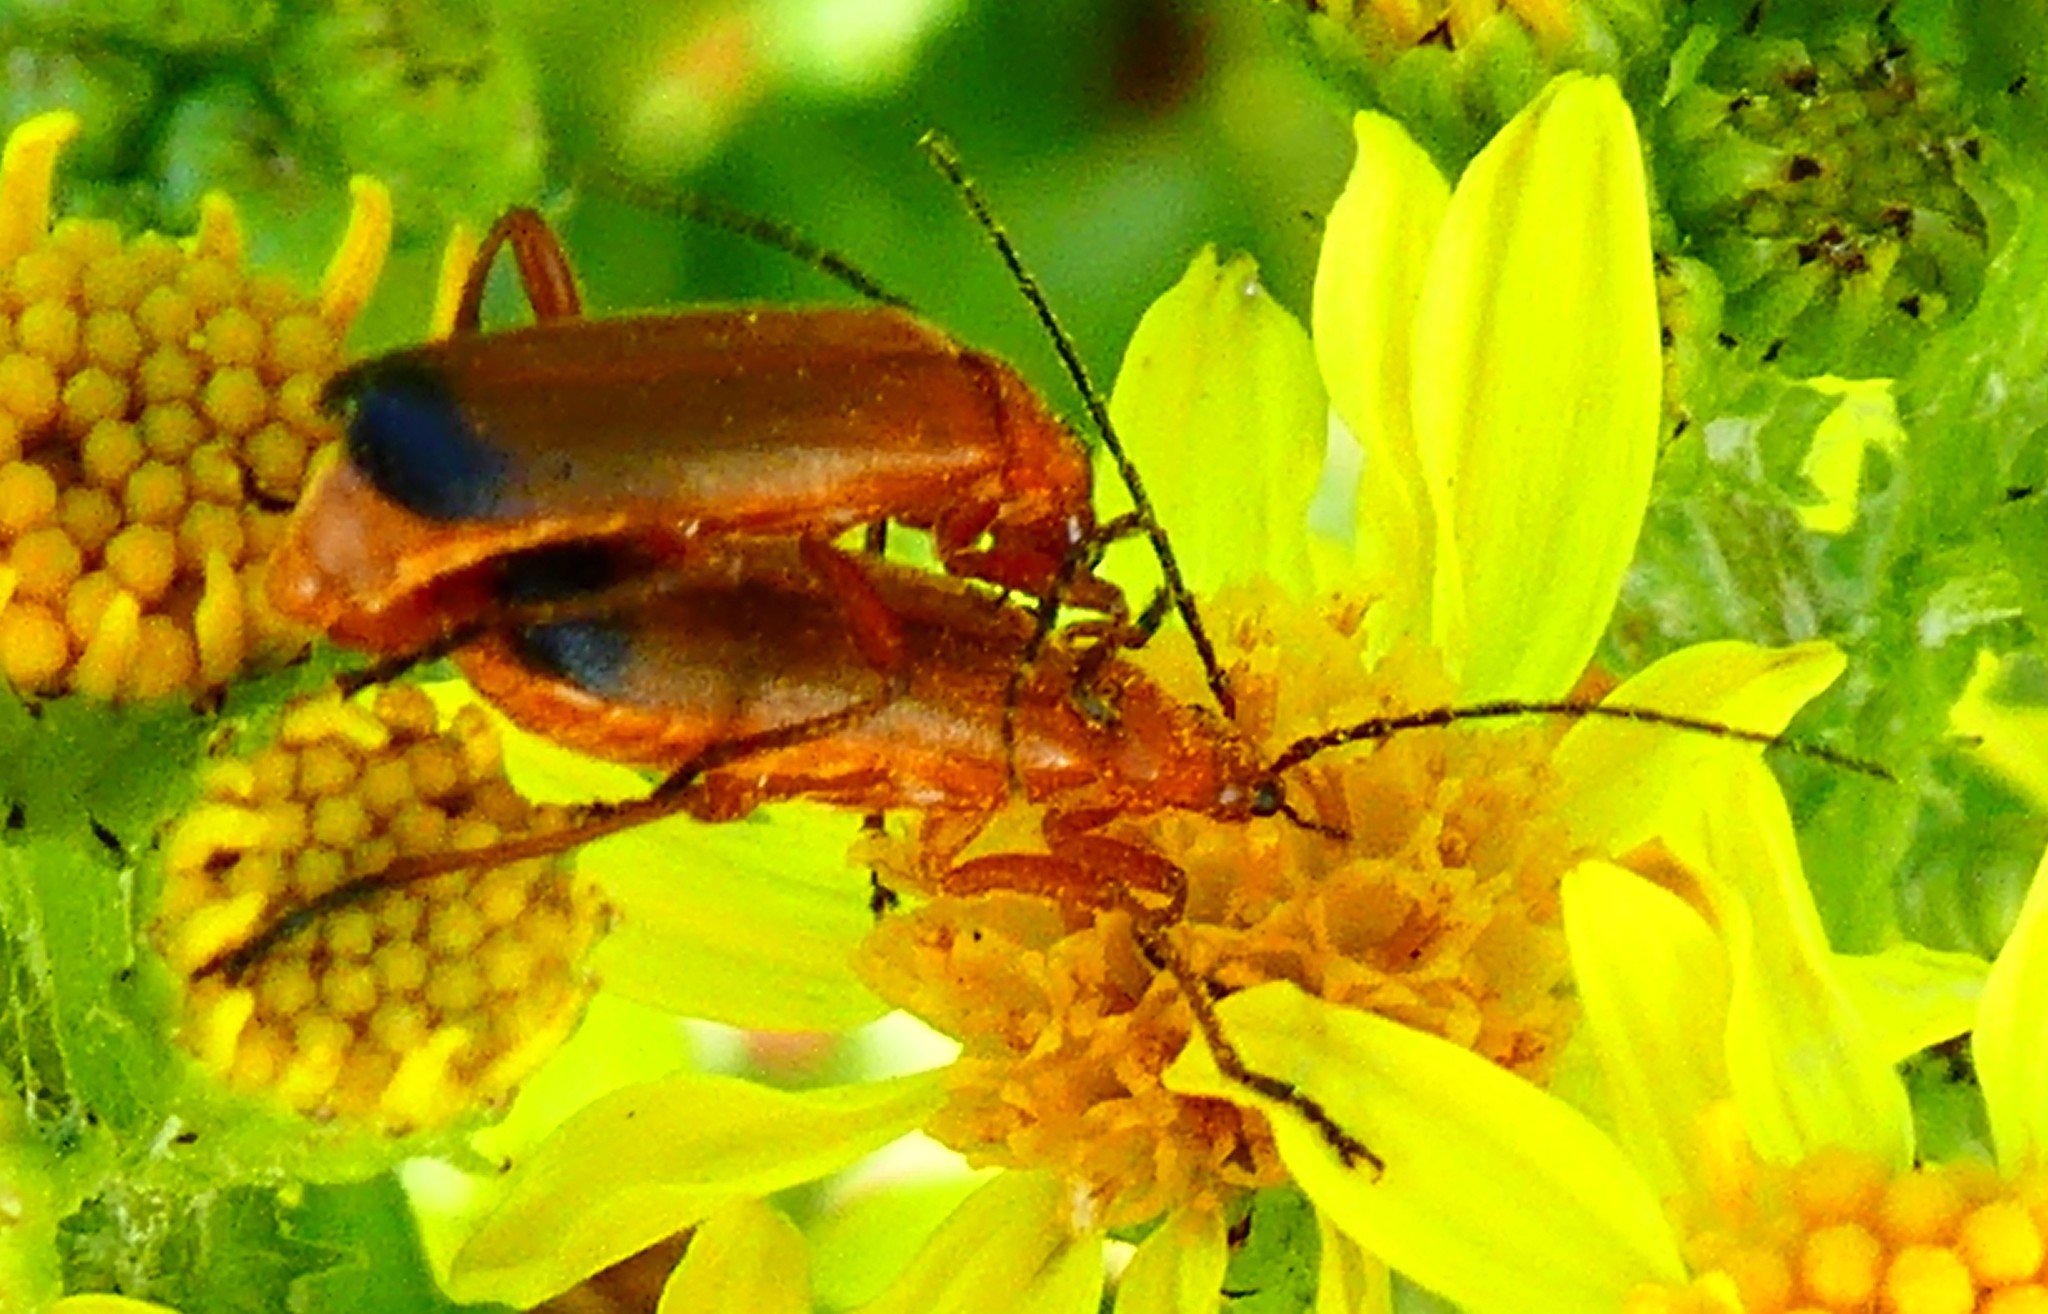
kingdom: Animalia
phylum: Arthropoda
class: Insecta
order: Coleoptera
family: Cantharidae
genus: Rhagonycha
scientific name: Rhagonycha fulva
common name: Common red soldier beetle
